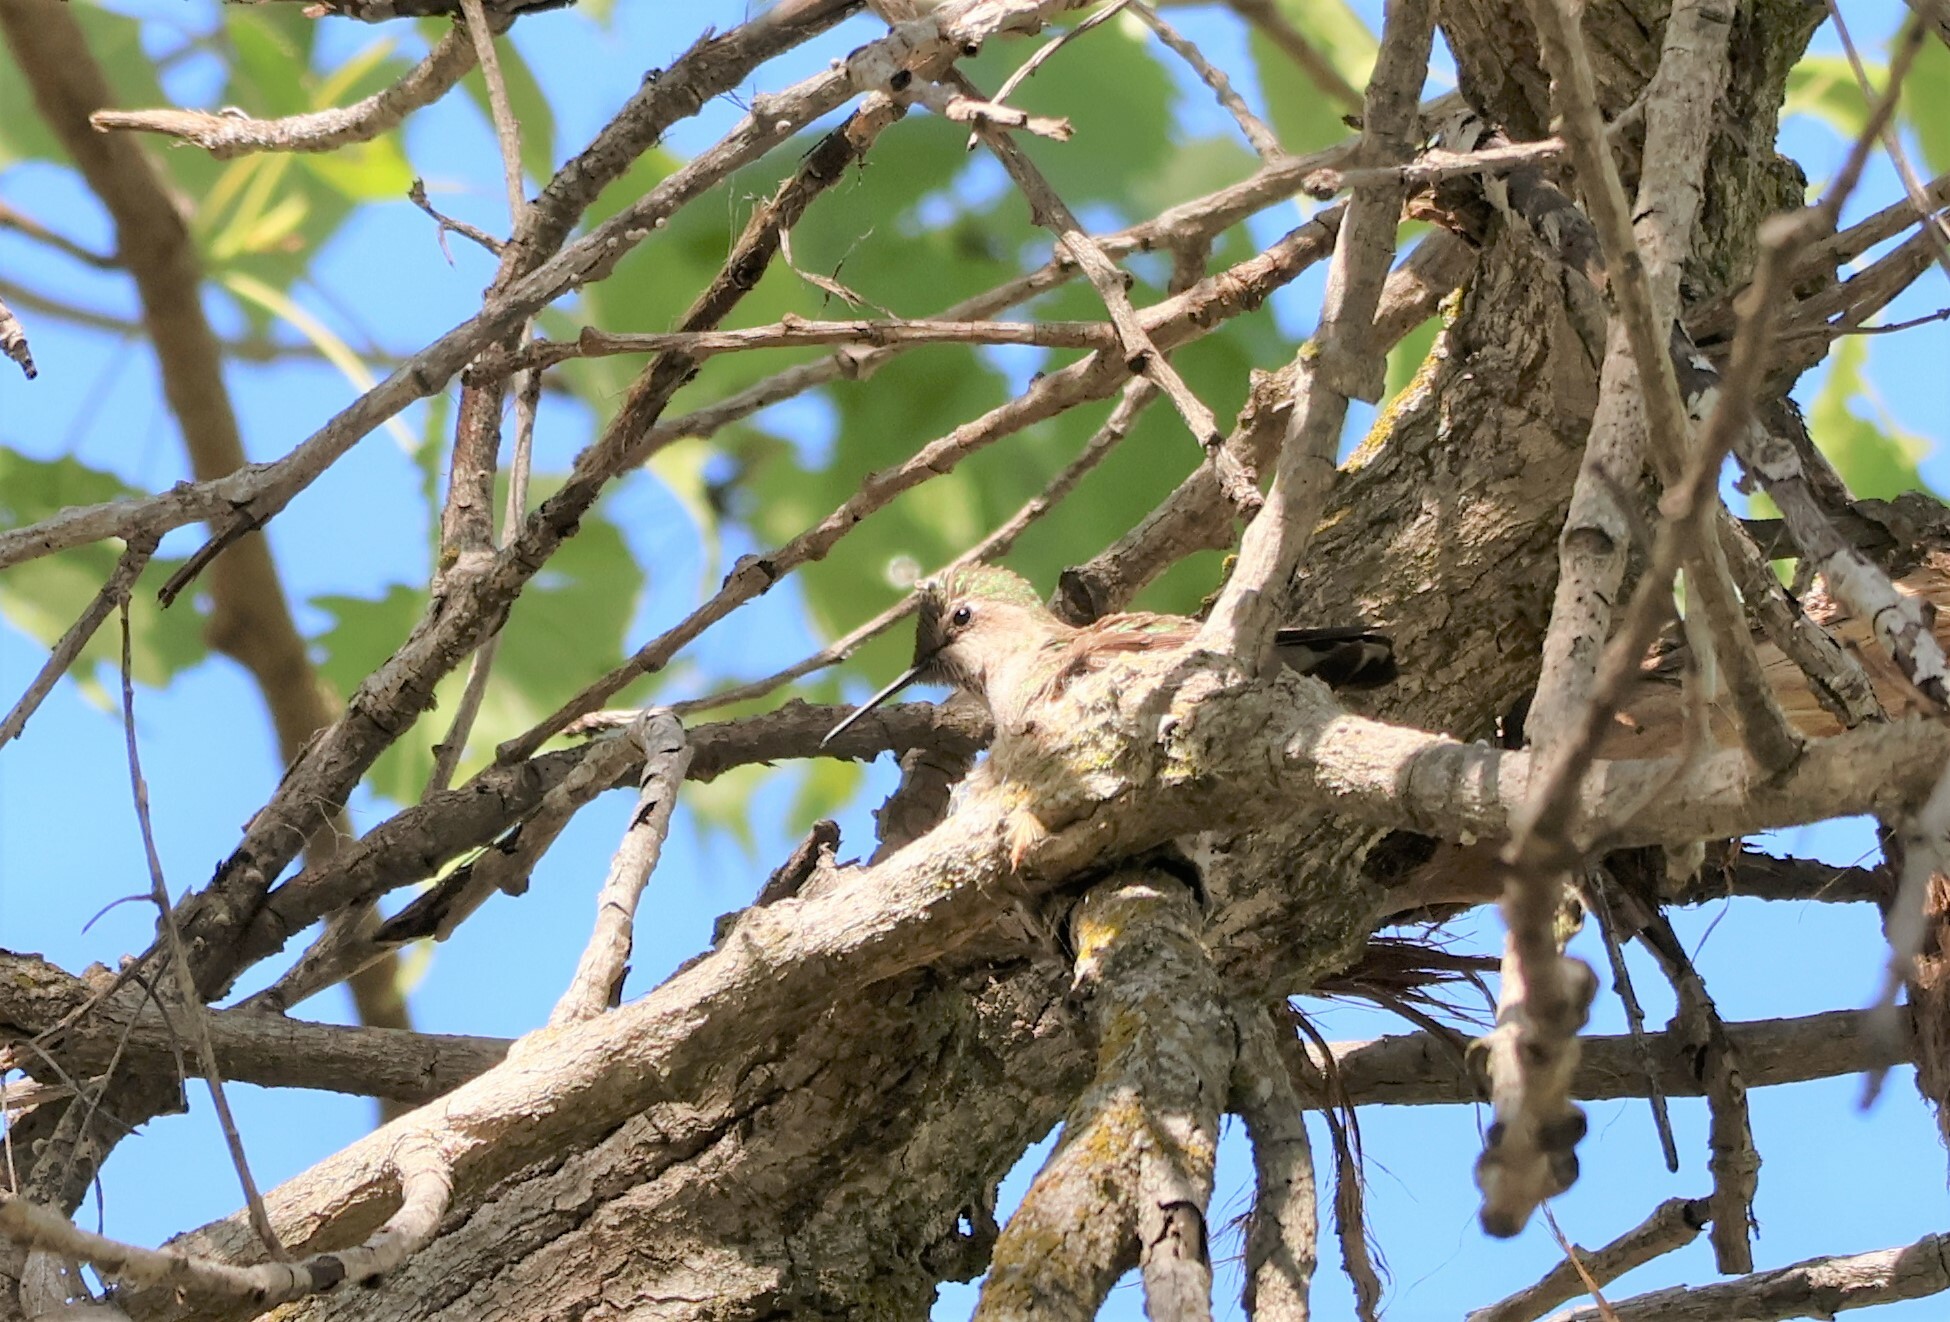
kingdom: Animalia
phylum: Chordata
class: Aves
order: Apodiformes
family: Trochilidae
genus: Calypte
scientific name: Calypte anna
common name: Anna's hummingbird
